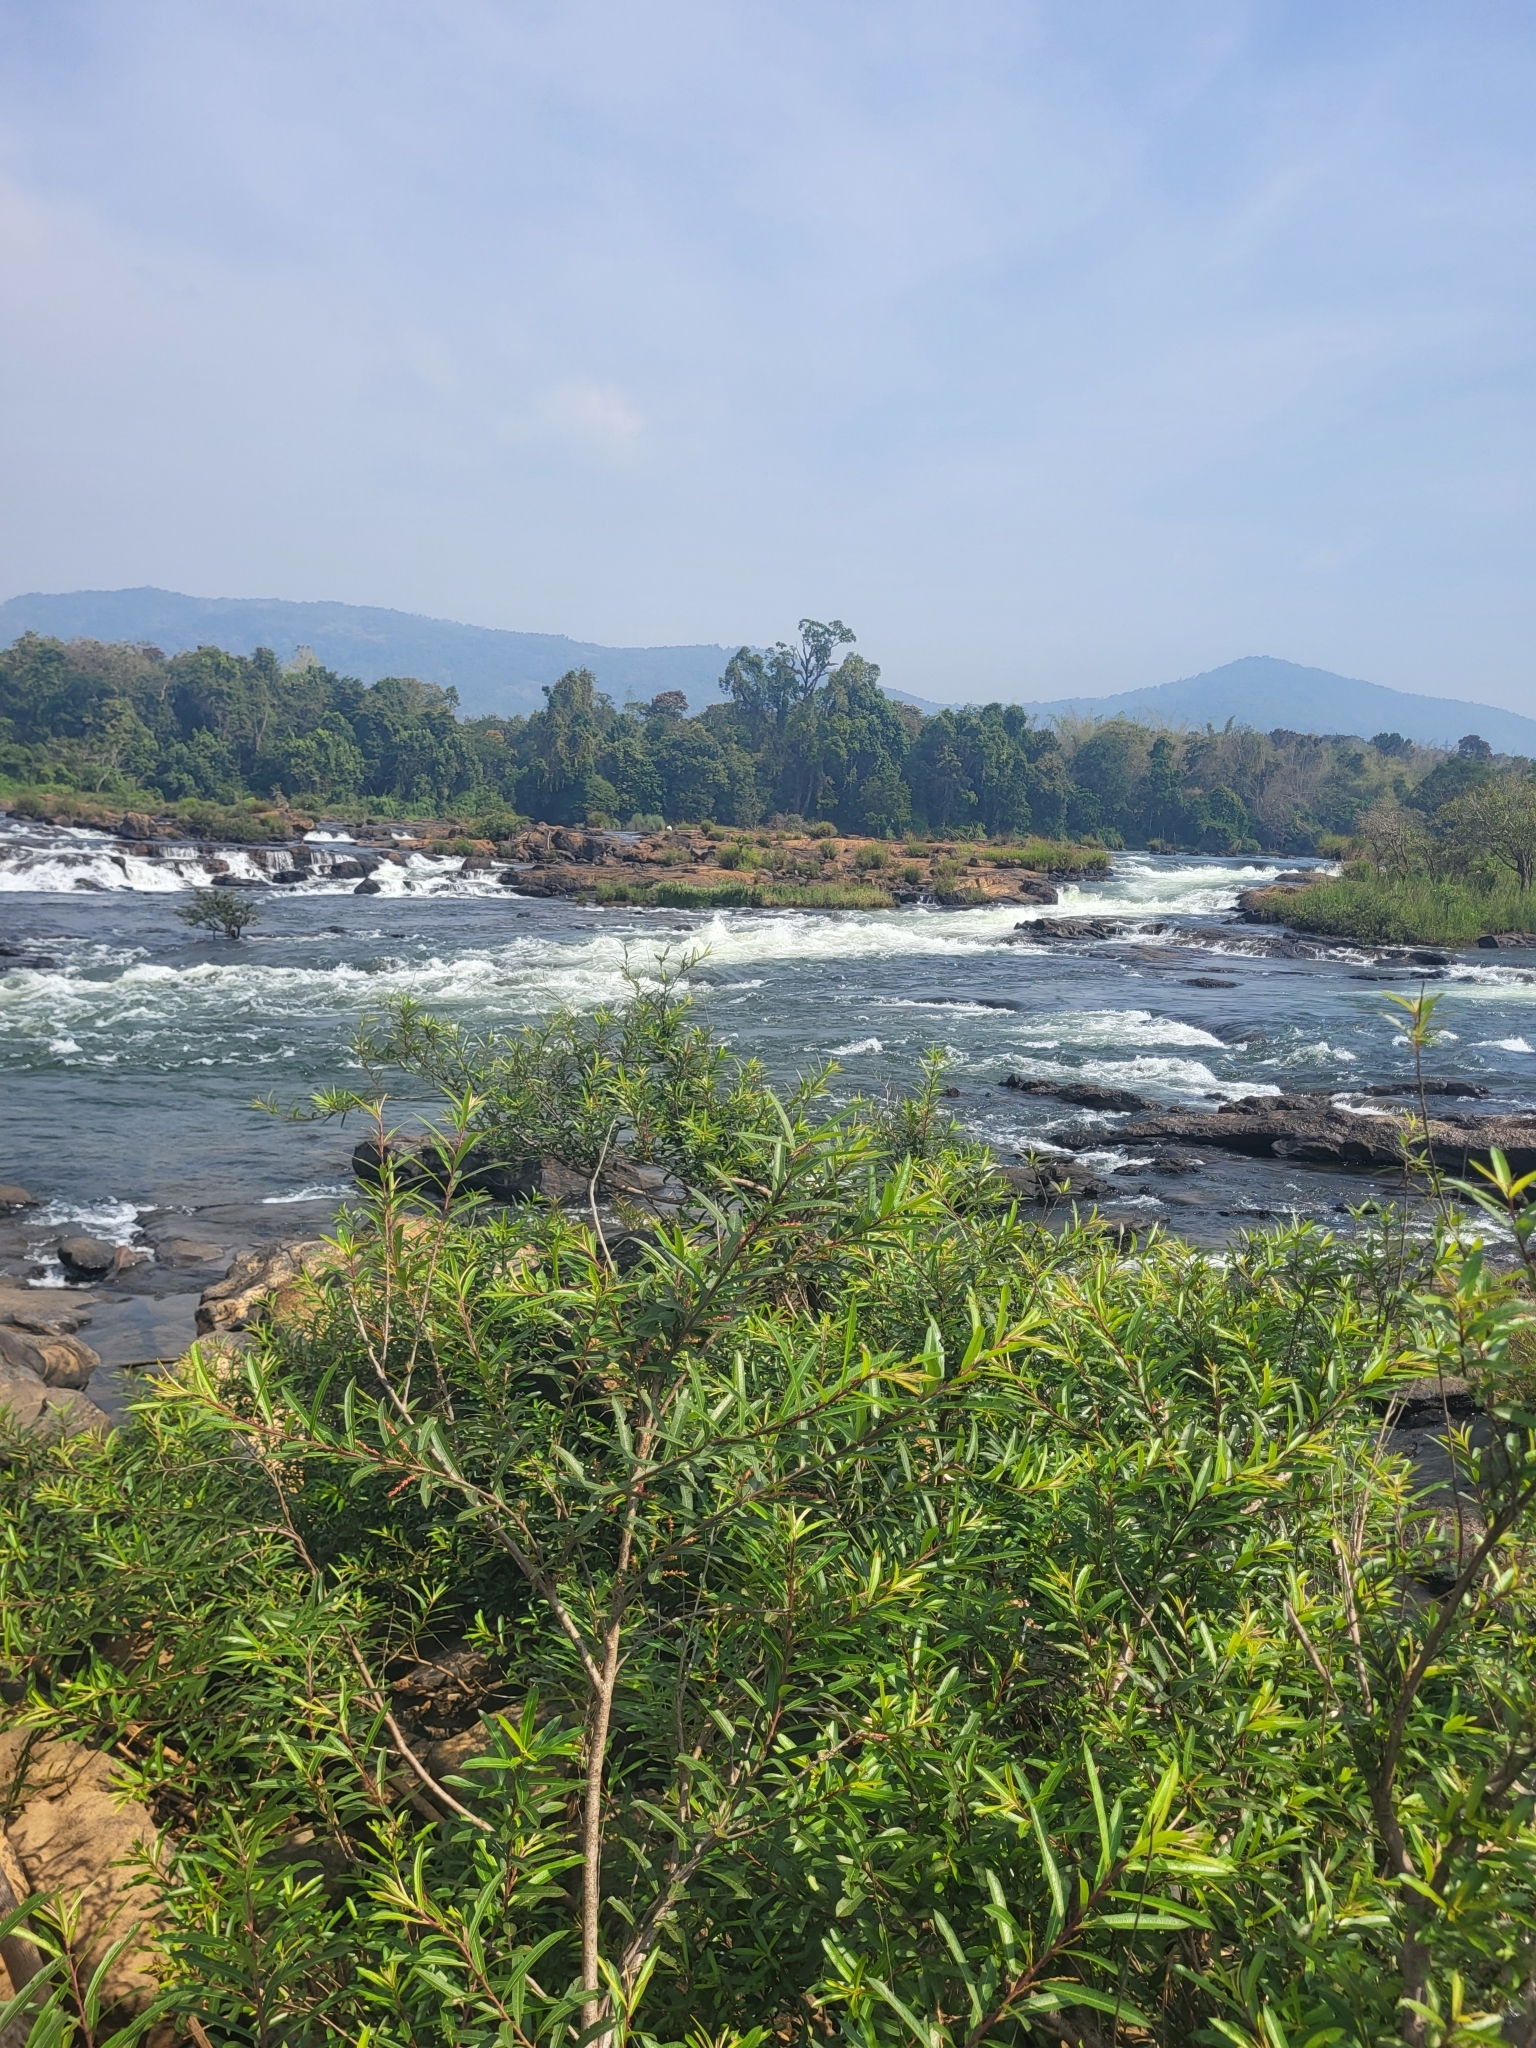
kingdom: Plantae
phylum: Tracheophyta
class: Magnoliopsida
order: Malpighiales
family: Euphorbiaceae
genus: Homonoia
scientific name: Homonoia riparia
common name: Willow-leaved water croton
